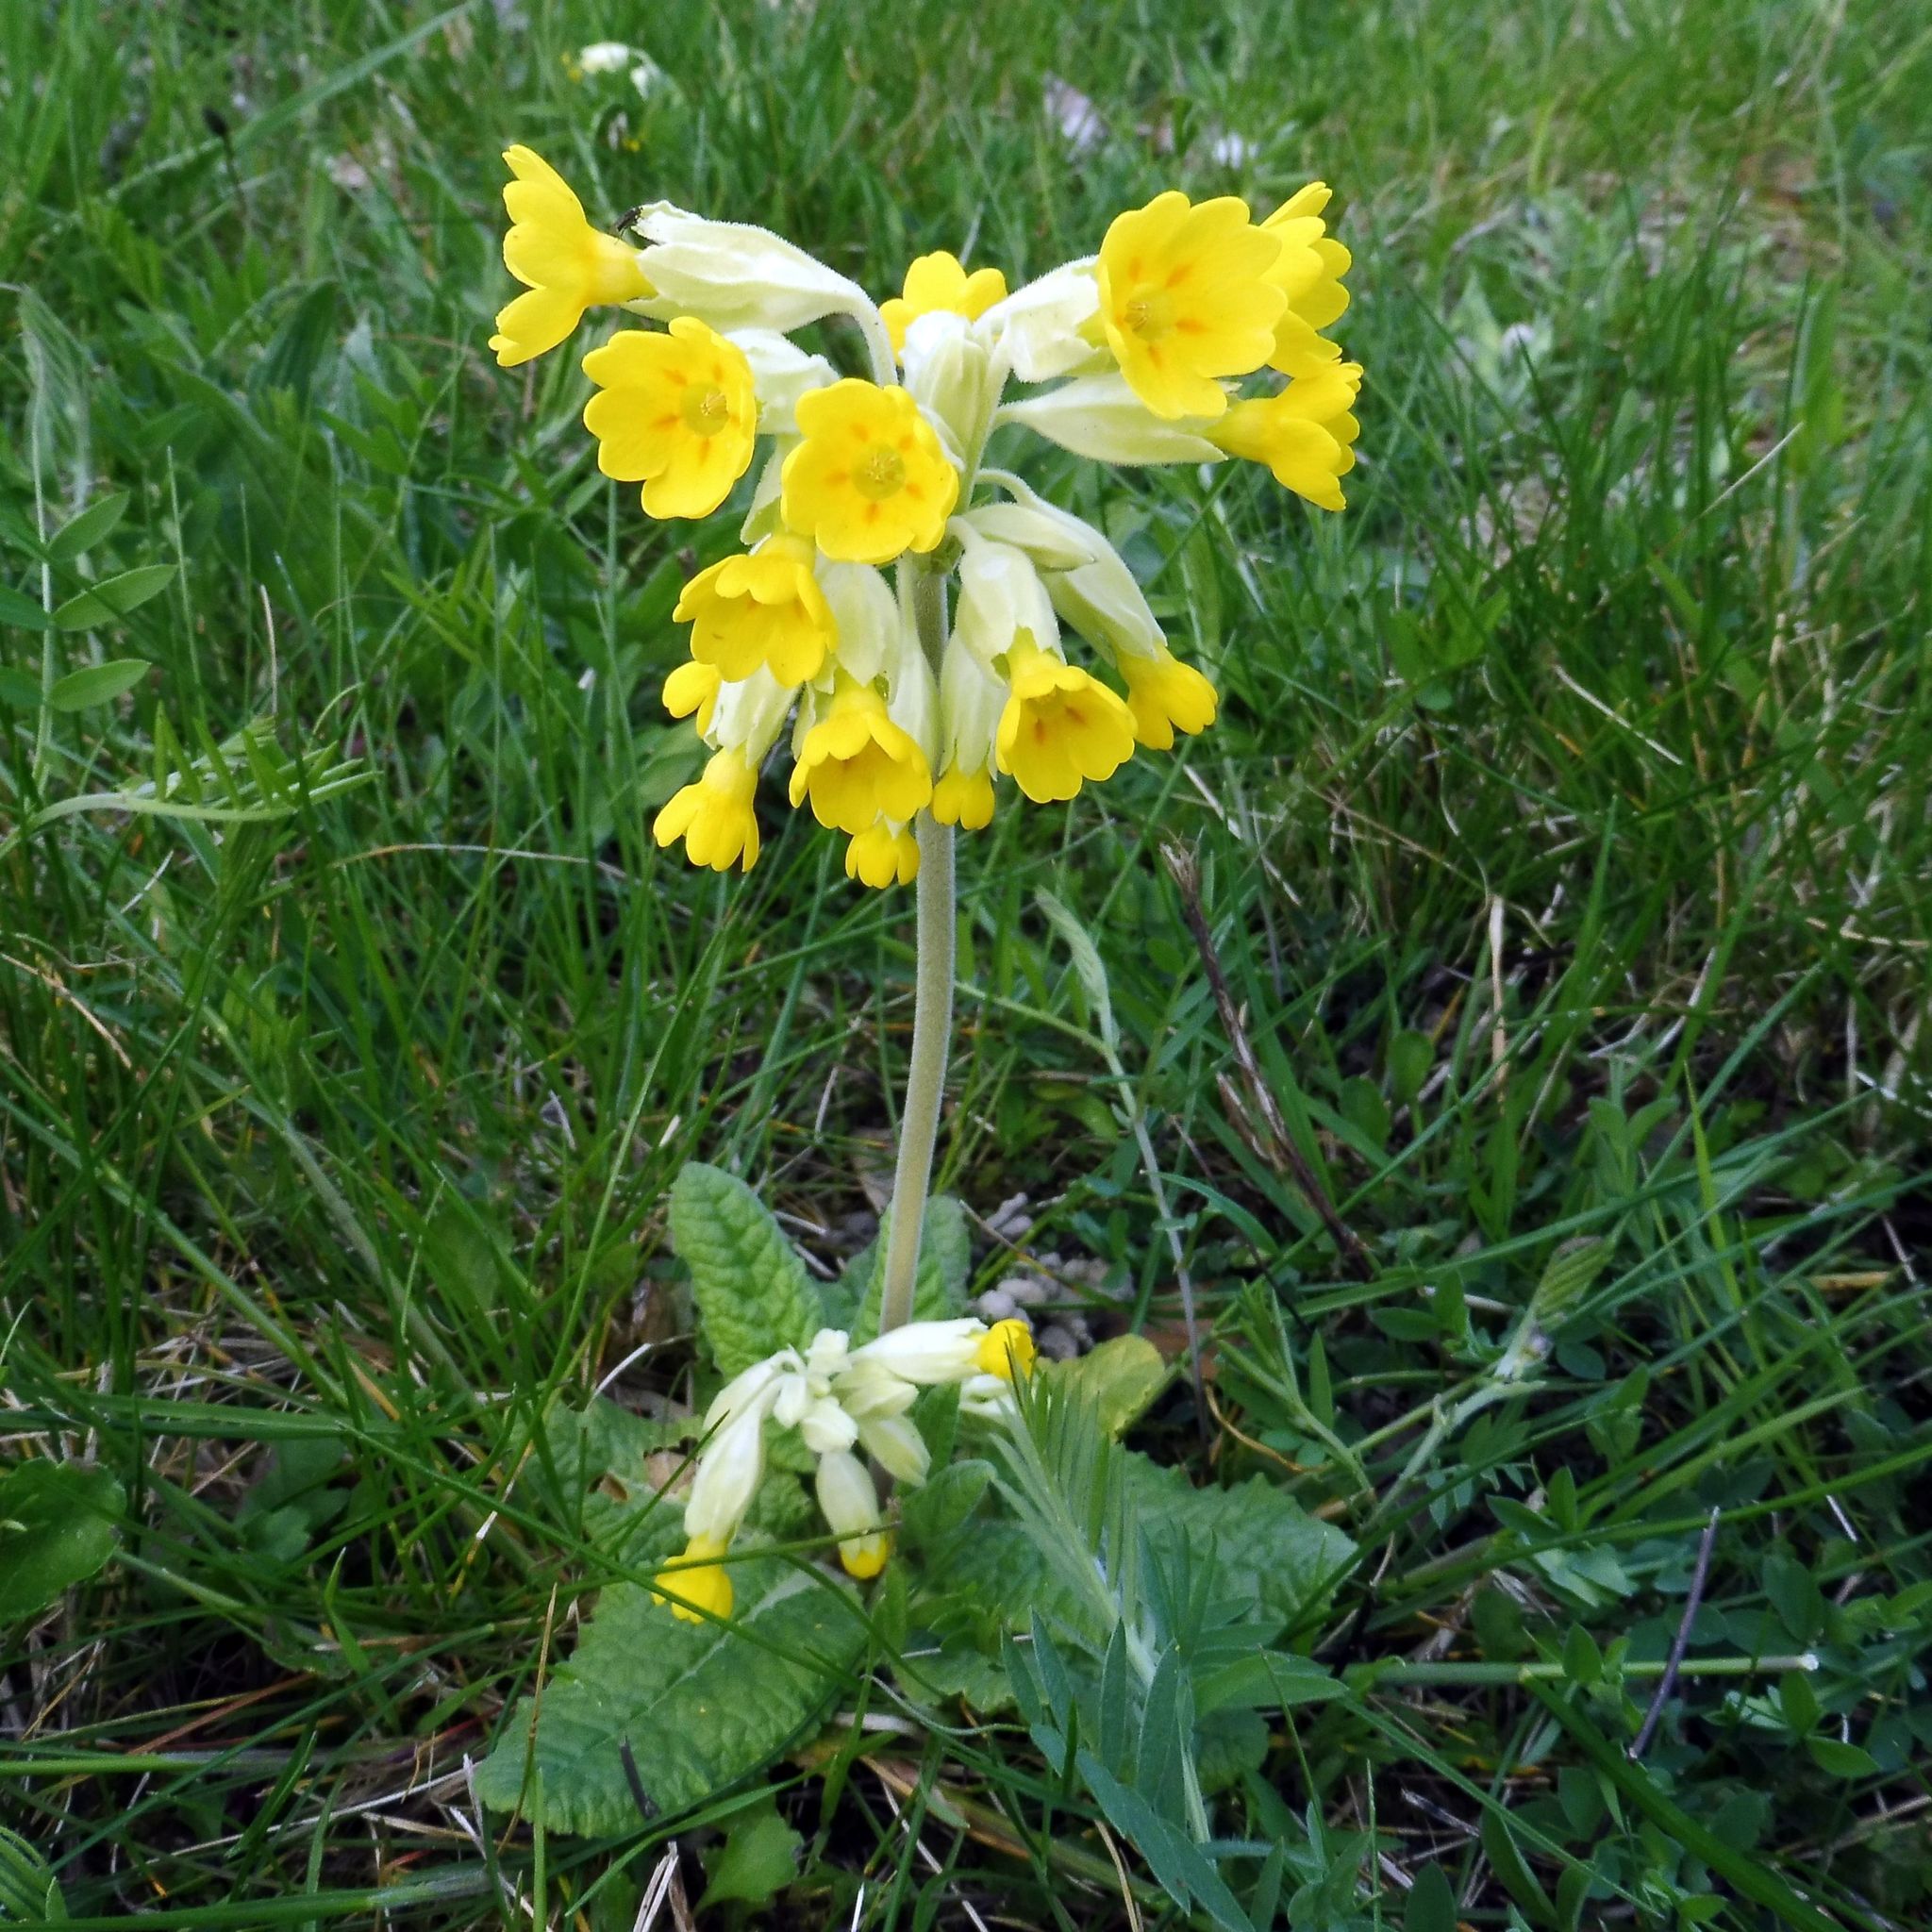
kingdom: Plantae
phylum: Tracheophyta
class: Magnoliopsida
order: Ericales
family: Primulaceae
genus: Primula
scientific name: Primula veris
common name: Cowslip
